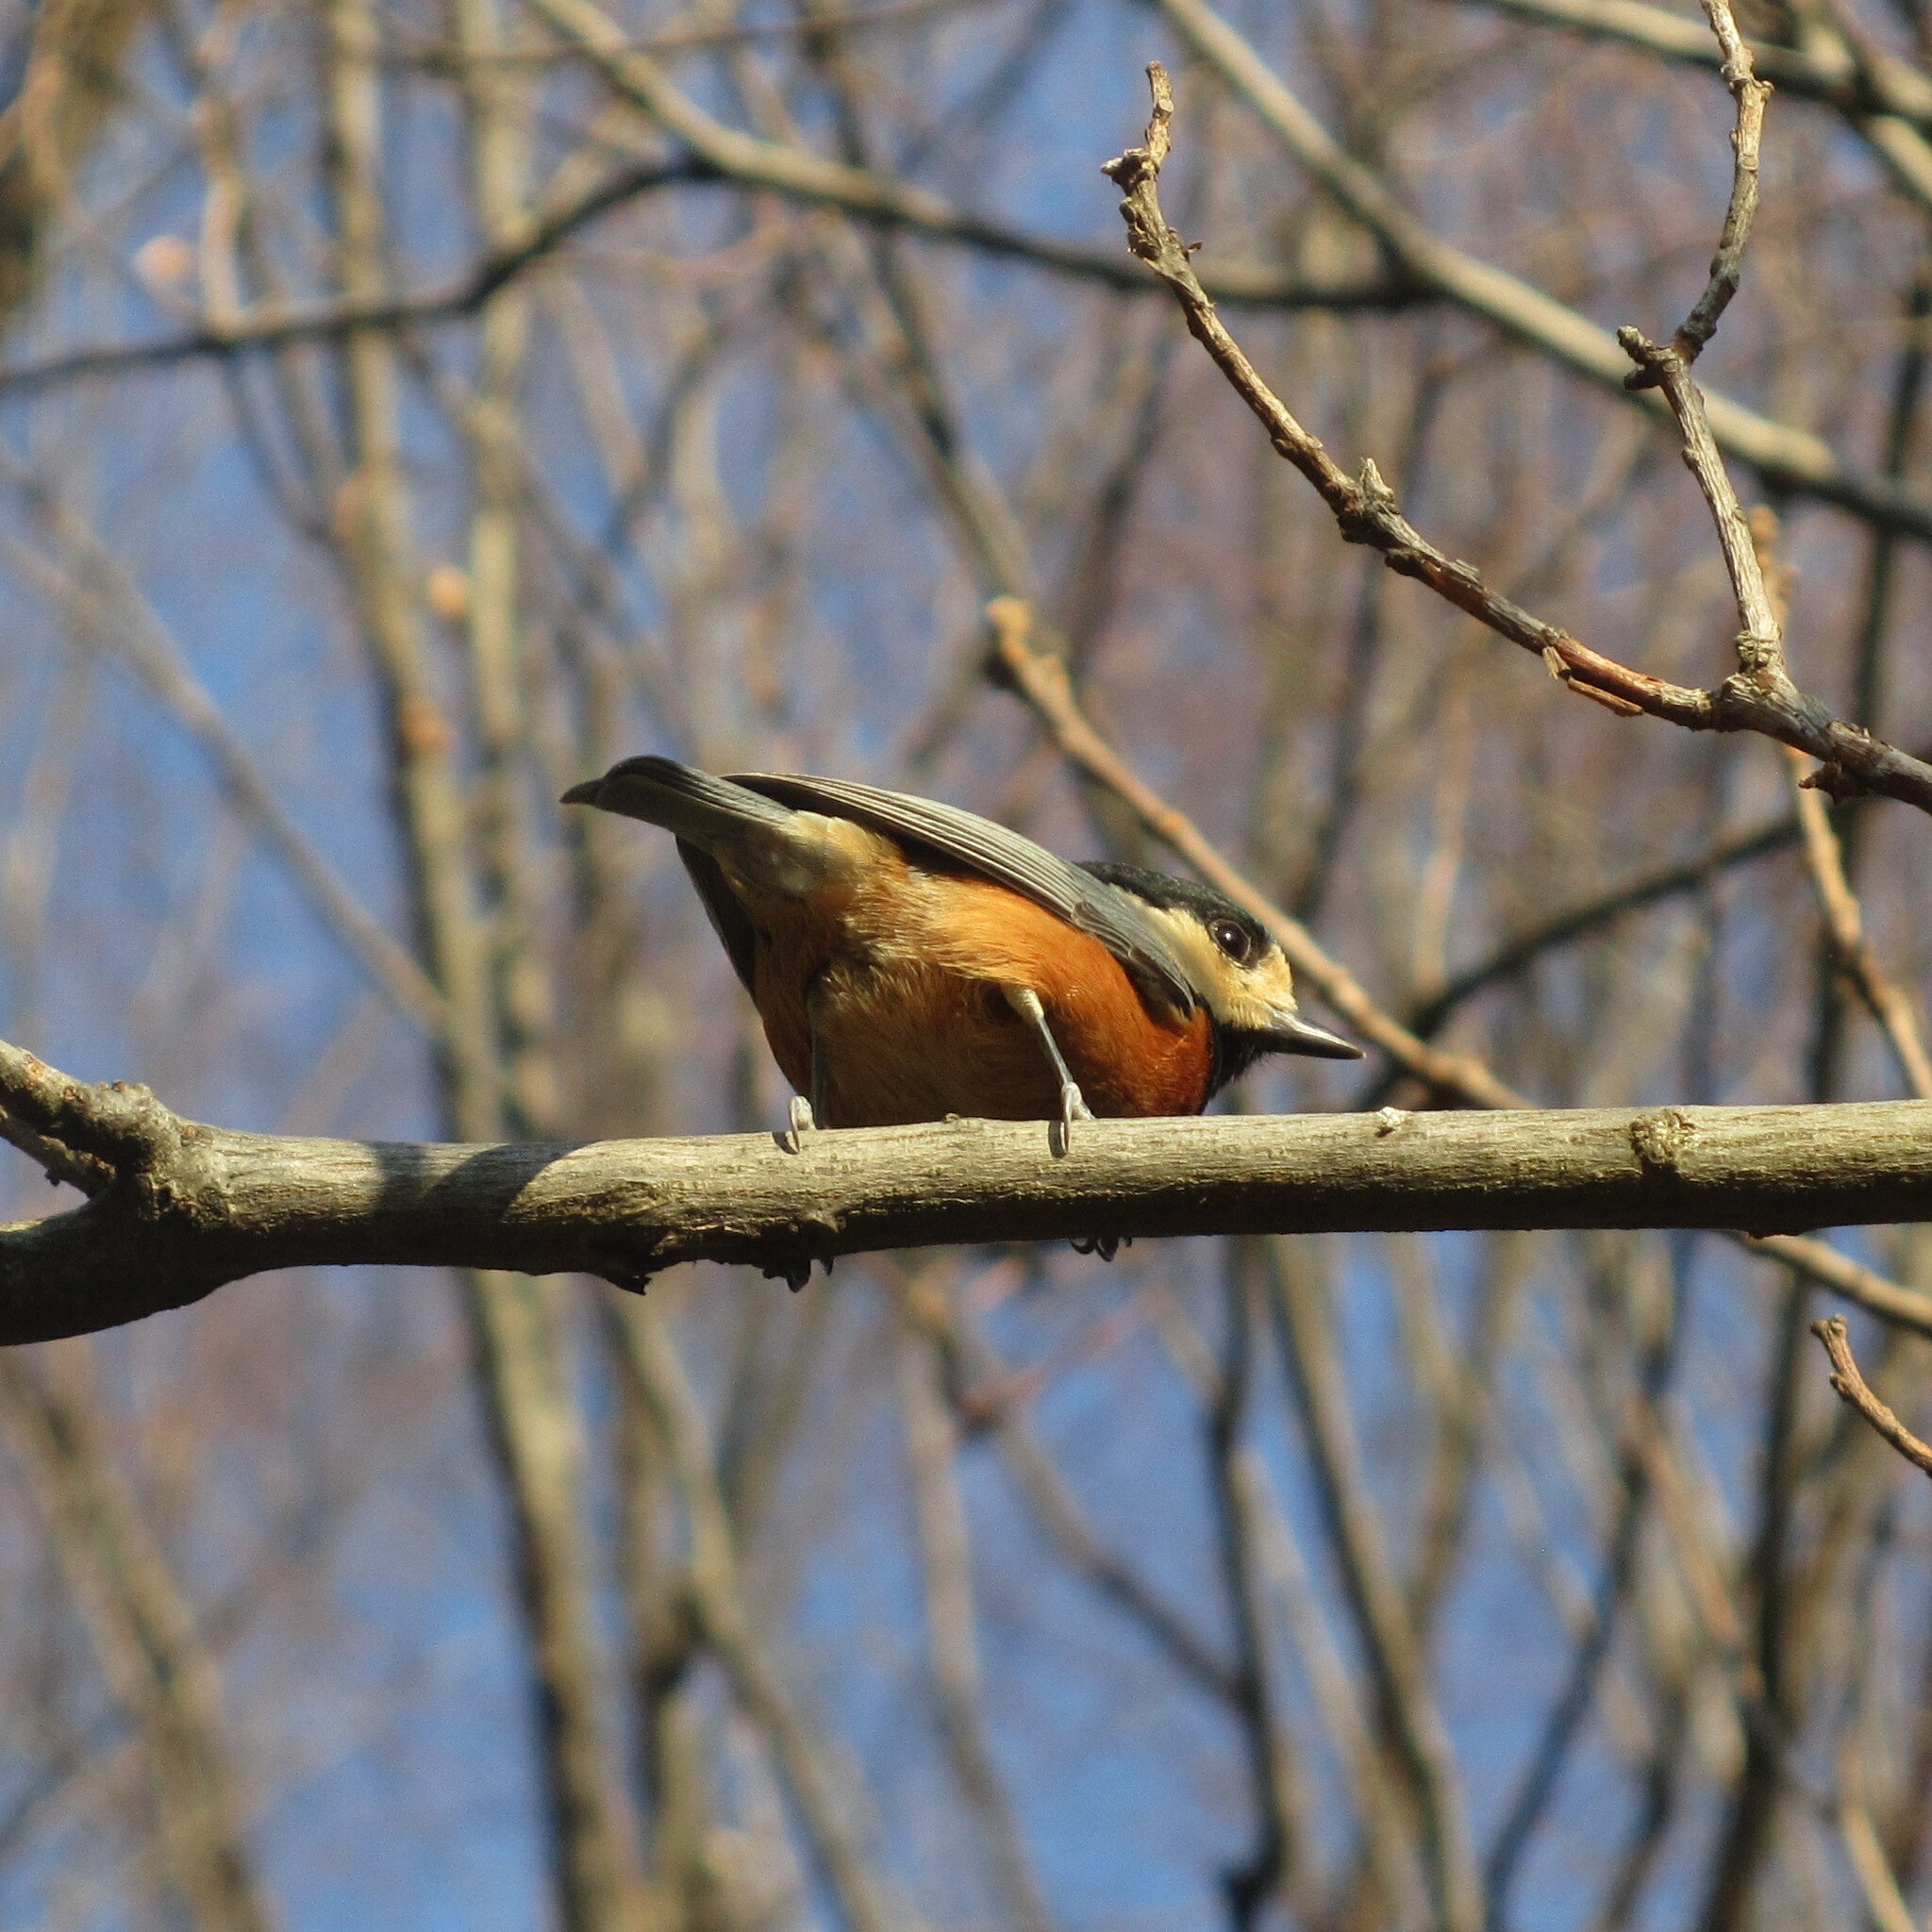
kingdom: Animalia
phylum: Chordata
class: Aves
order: Passeriformes
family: Paridae
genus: Poecile
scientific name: Poecile varius
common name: Varied tit
